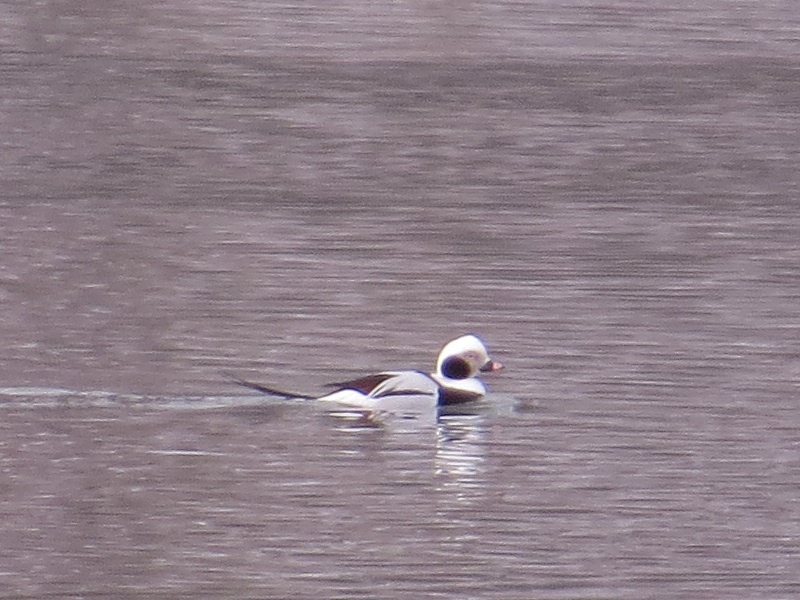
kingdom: Animalia
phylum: Chordata
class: Aves
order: Anseriformes
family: Anatidae
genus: Clangula
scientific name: Clangula hyemalis
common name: Long-tailed duck
